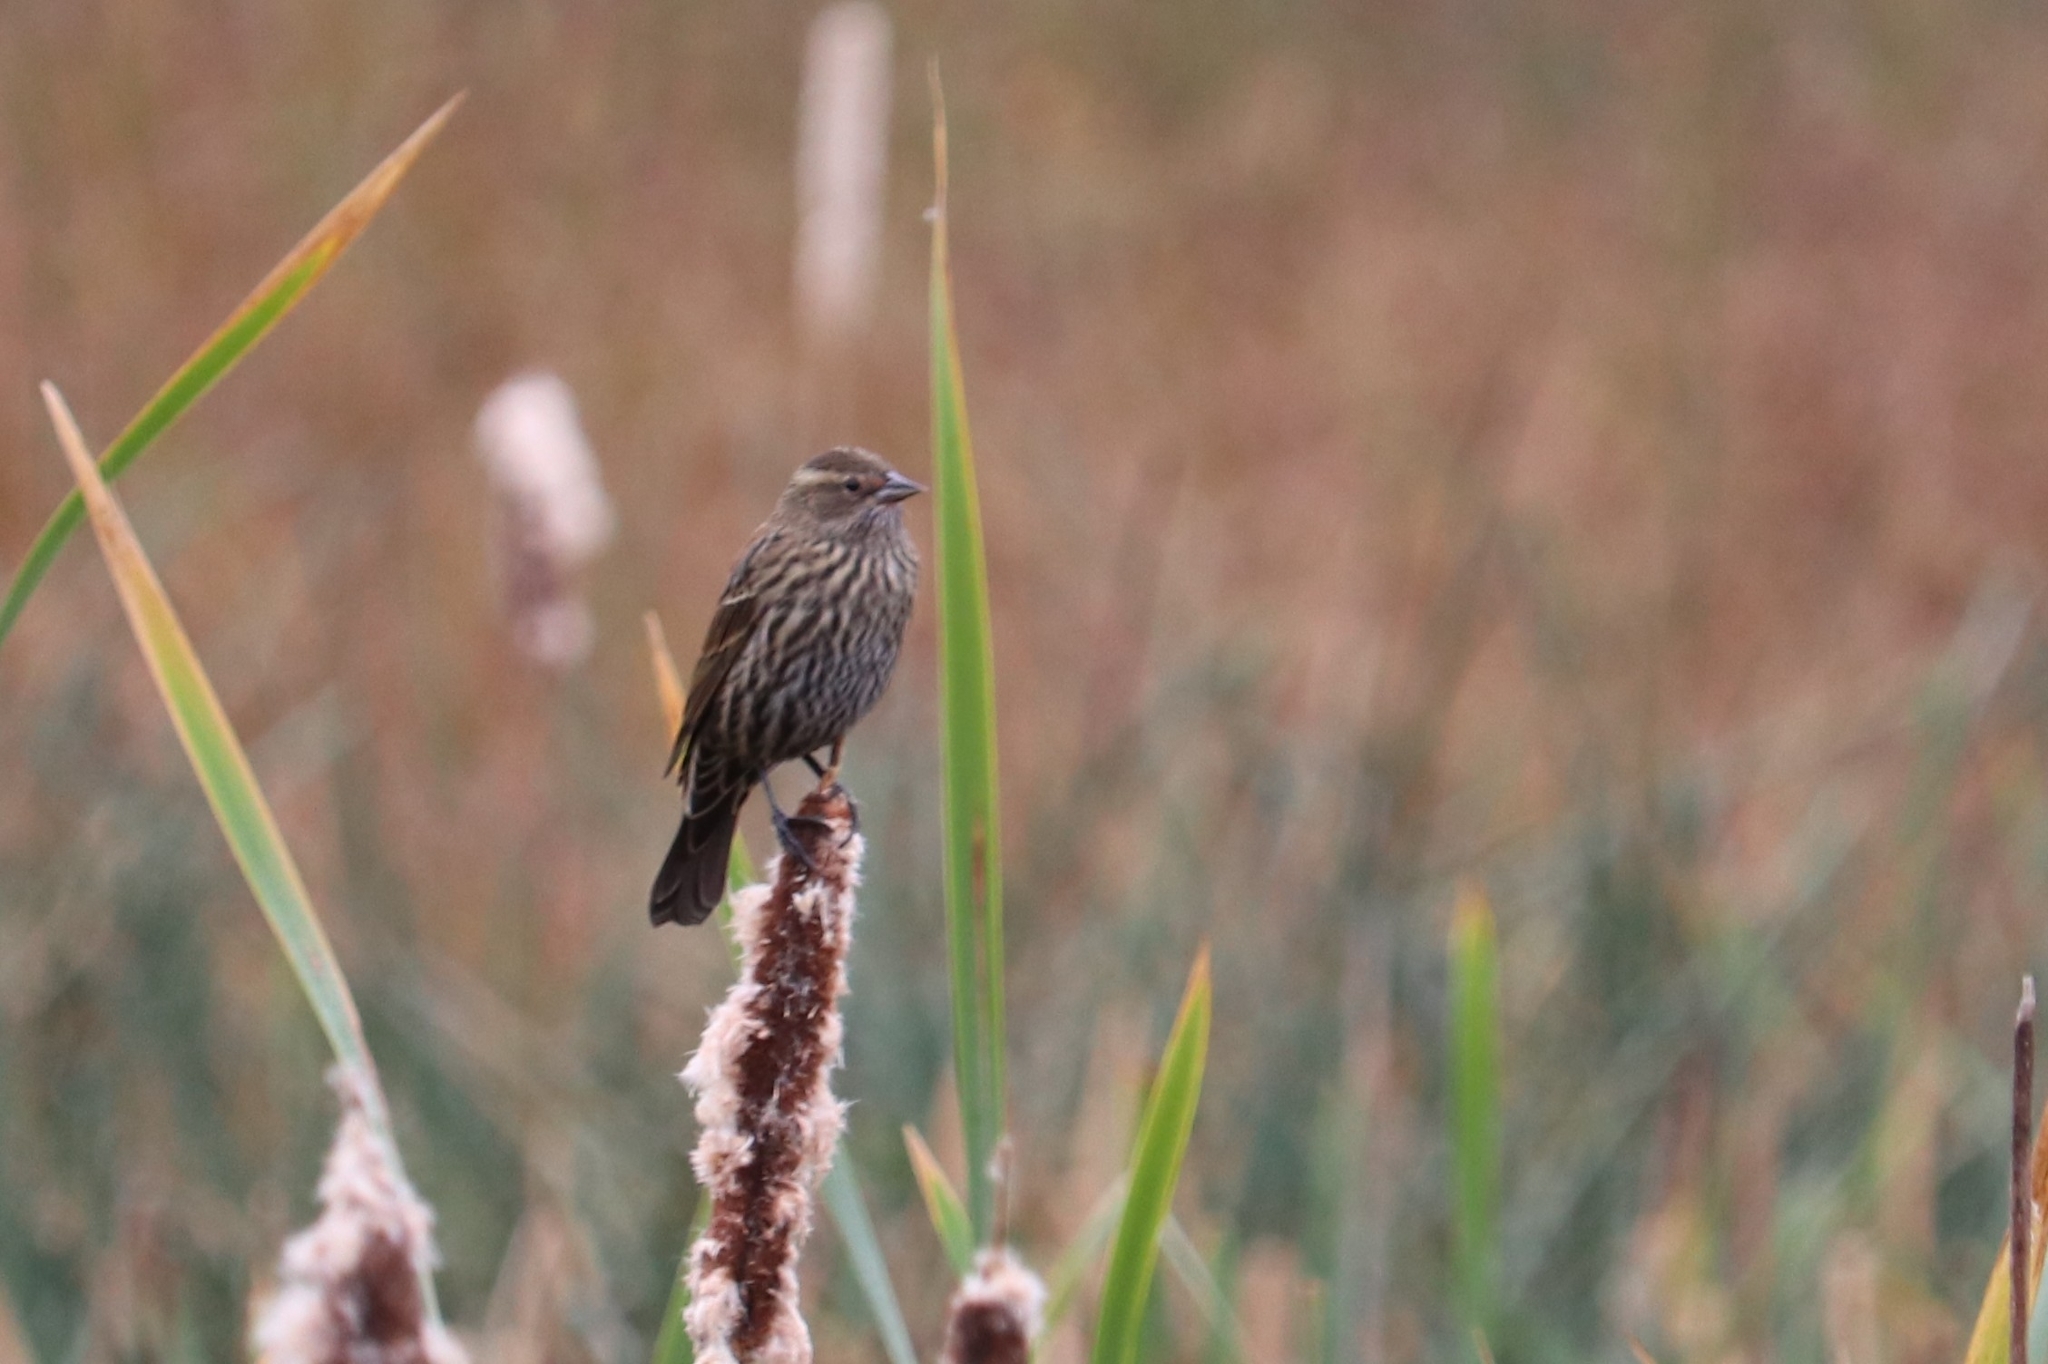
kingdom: Animalia
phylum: Chordata
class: Aves
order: Passeriformes
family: Icteridae
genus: Agelaius
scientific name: Agelaius phoeniceus
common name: Red-winged blackbird
